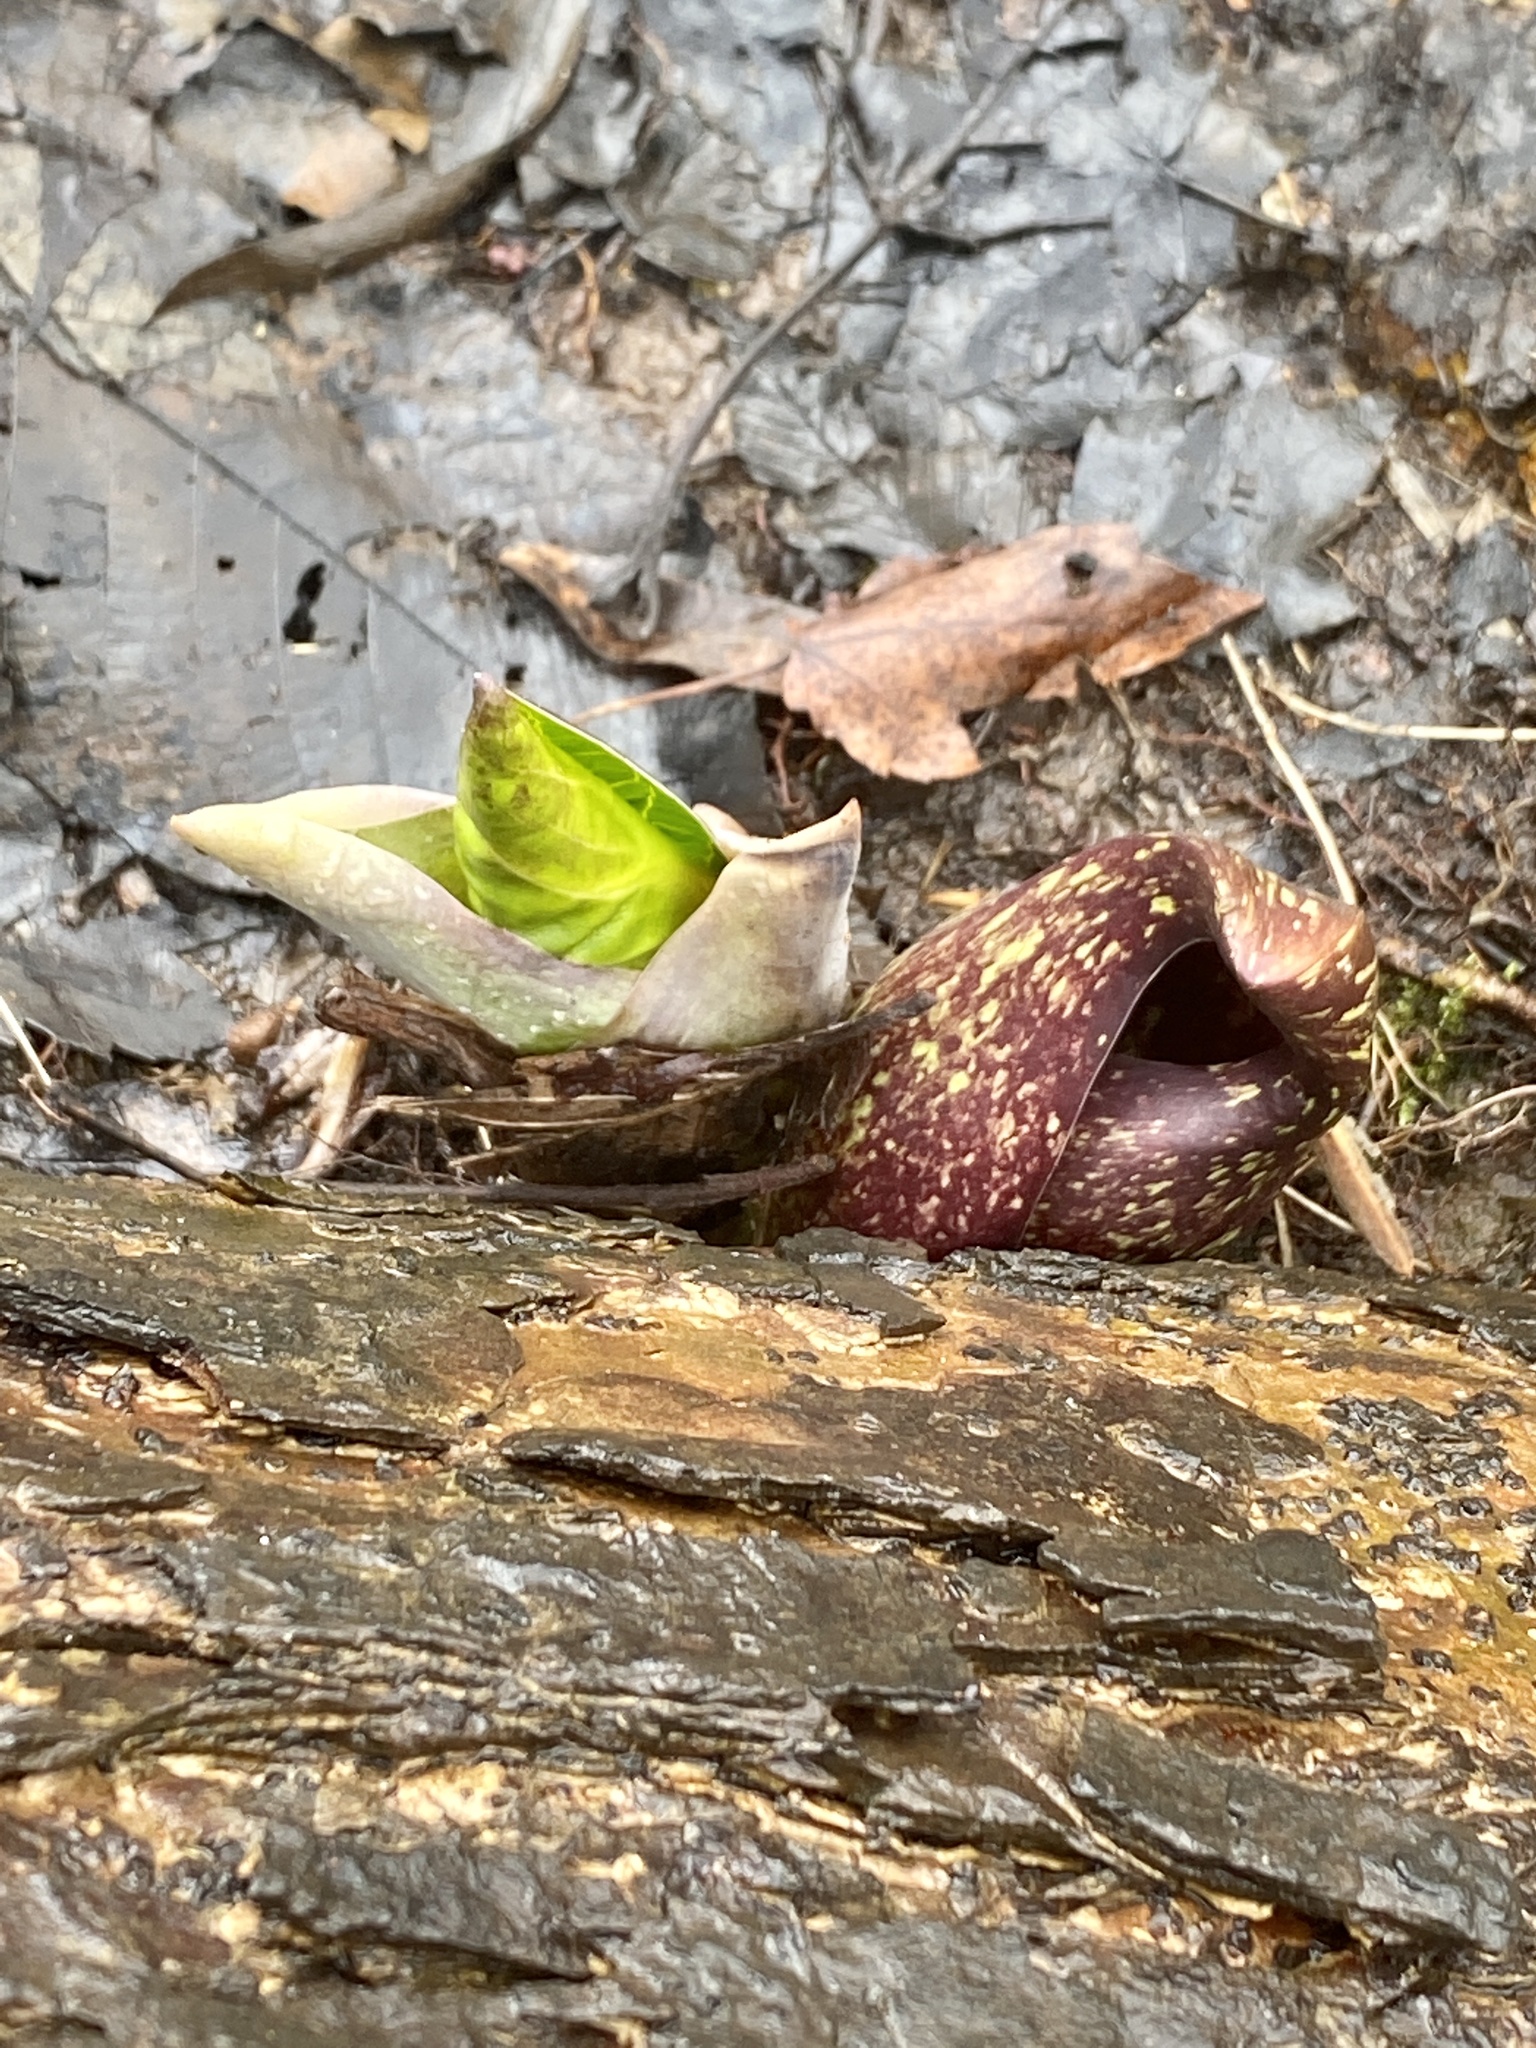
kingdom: Plantae
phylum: Tracheophyta
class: Liliopsida
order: Alismatales
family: Araceae
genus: Symplocarpus
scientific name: Symplocarpus foetidus
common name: Eastern skunk cabbage
